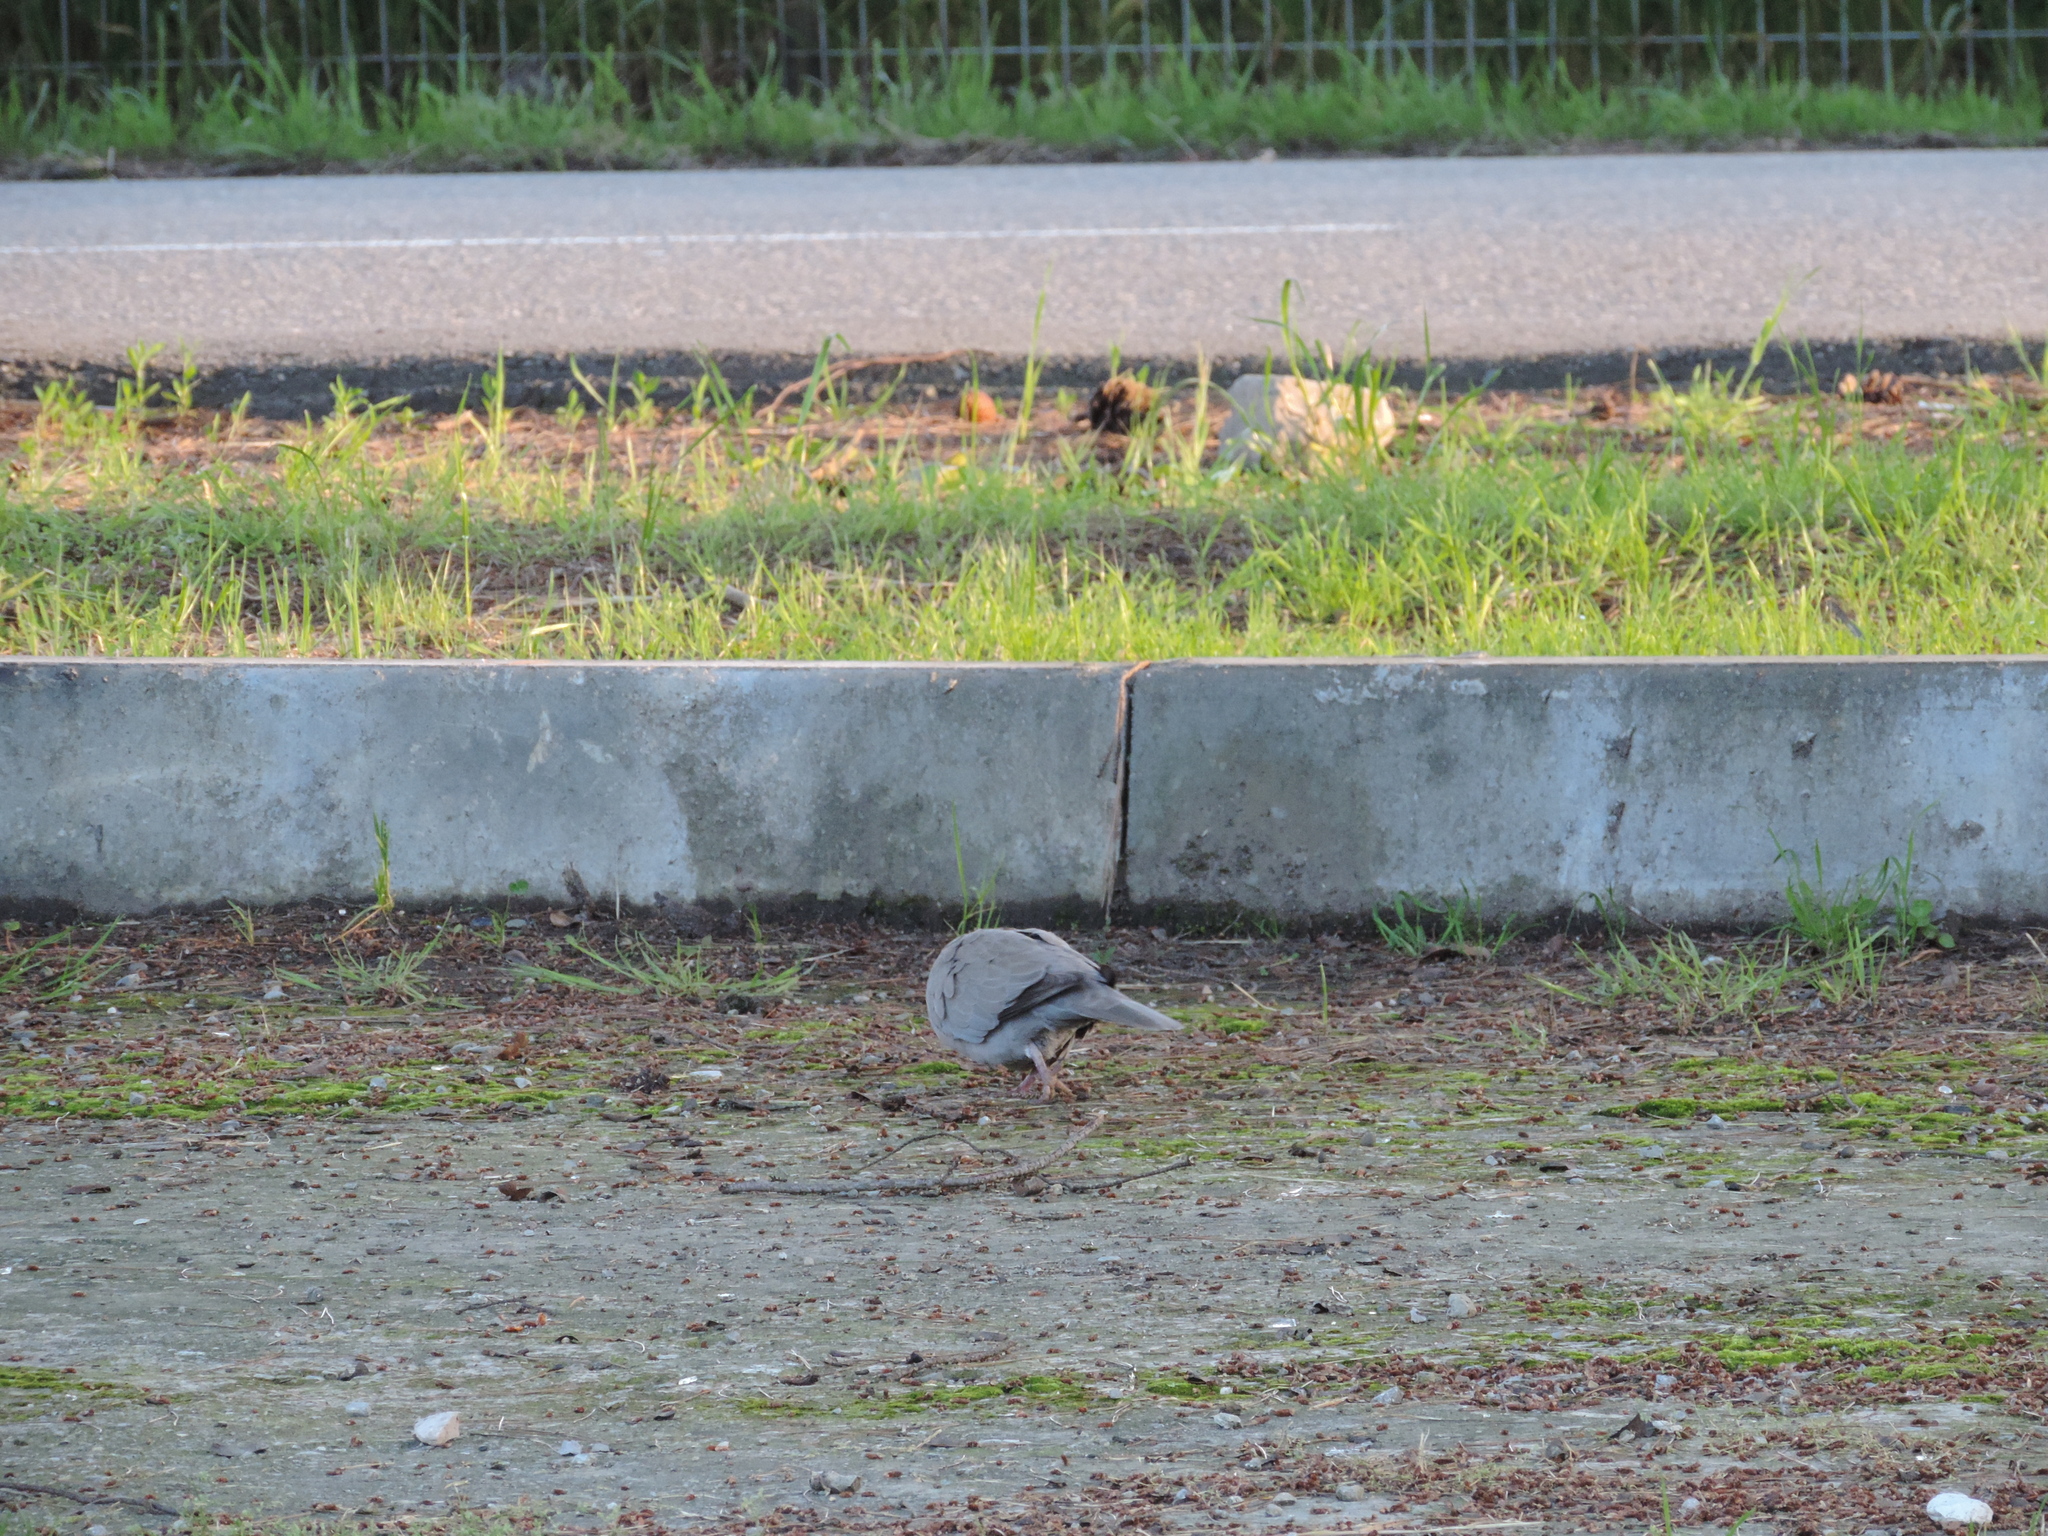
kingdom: Animalia
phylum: Chordata
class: Aves
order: Columbiformes
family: Columbidae
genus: Streptopelia
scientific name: Streptopelia decaocto
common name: Eurasian collared dove
